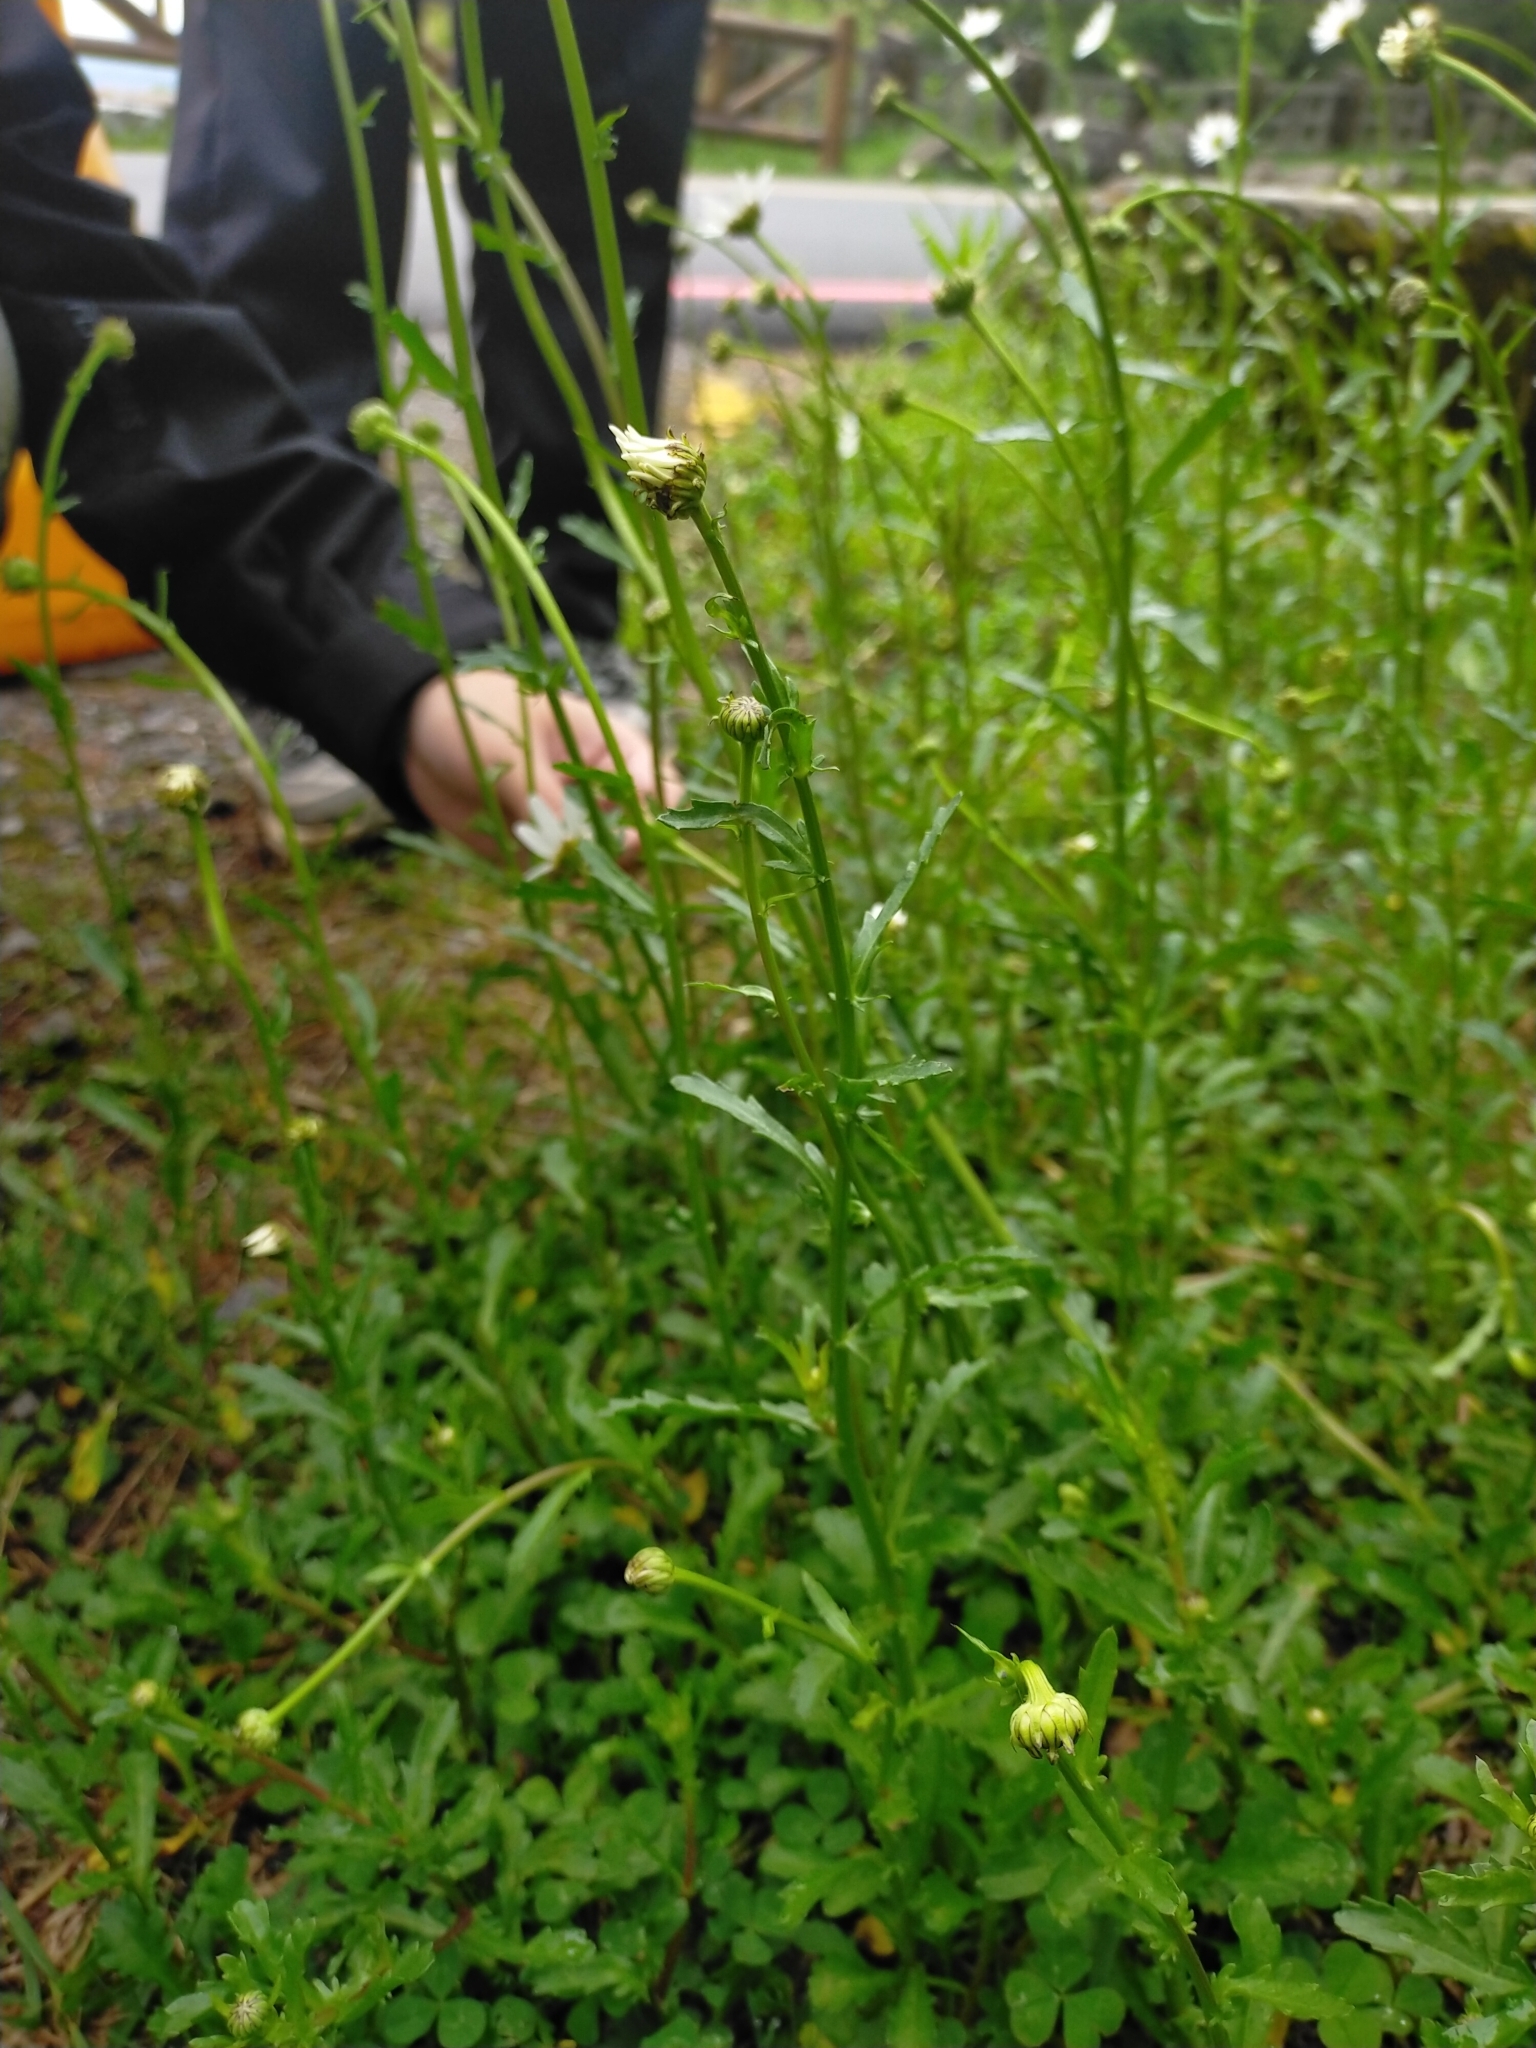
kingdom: Plantae
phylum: Tracheophyta
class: Magnoliopsida
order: Asterales
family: Asteraceae
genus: Leucanthemum
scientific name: Leucanthemum vulgare
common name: Oxeye daisy
